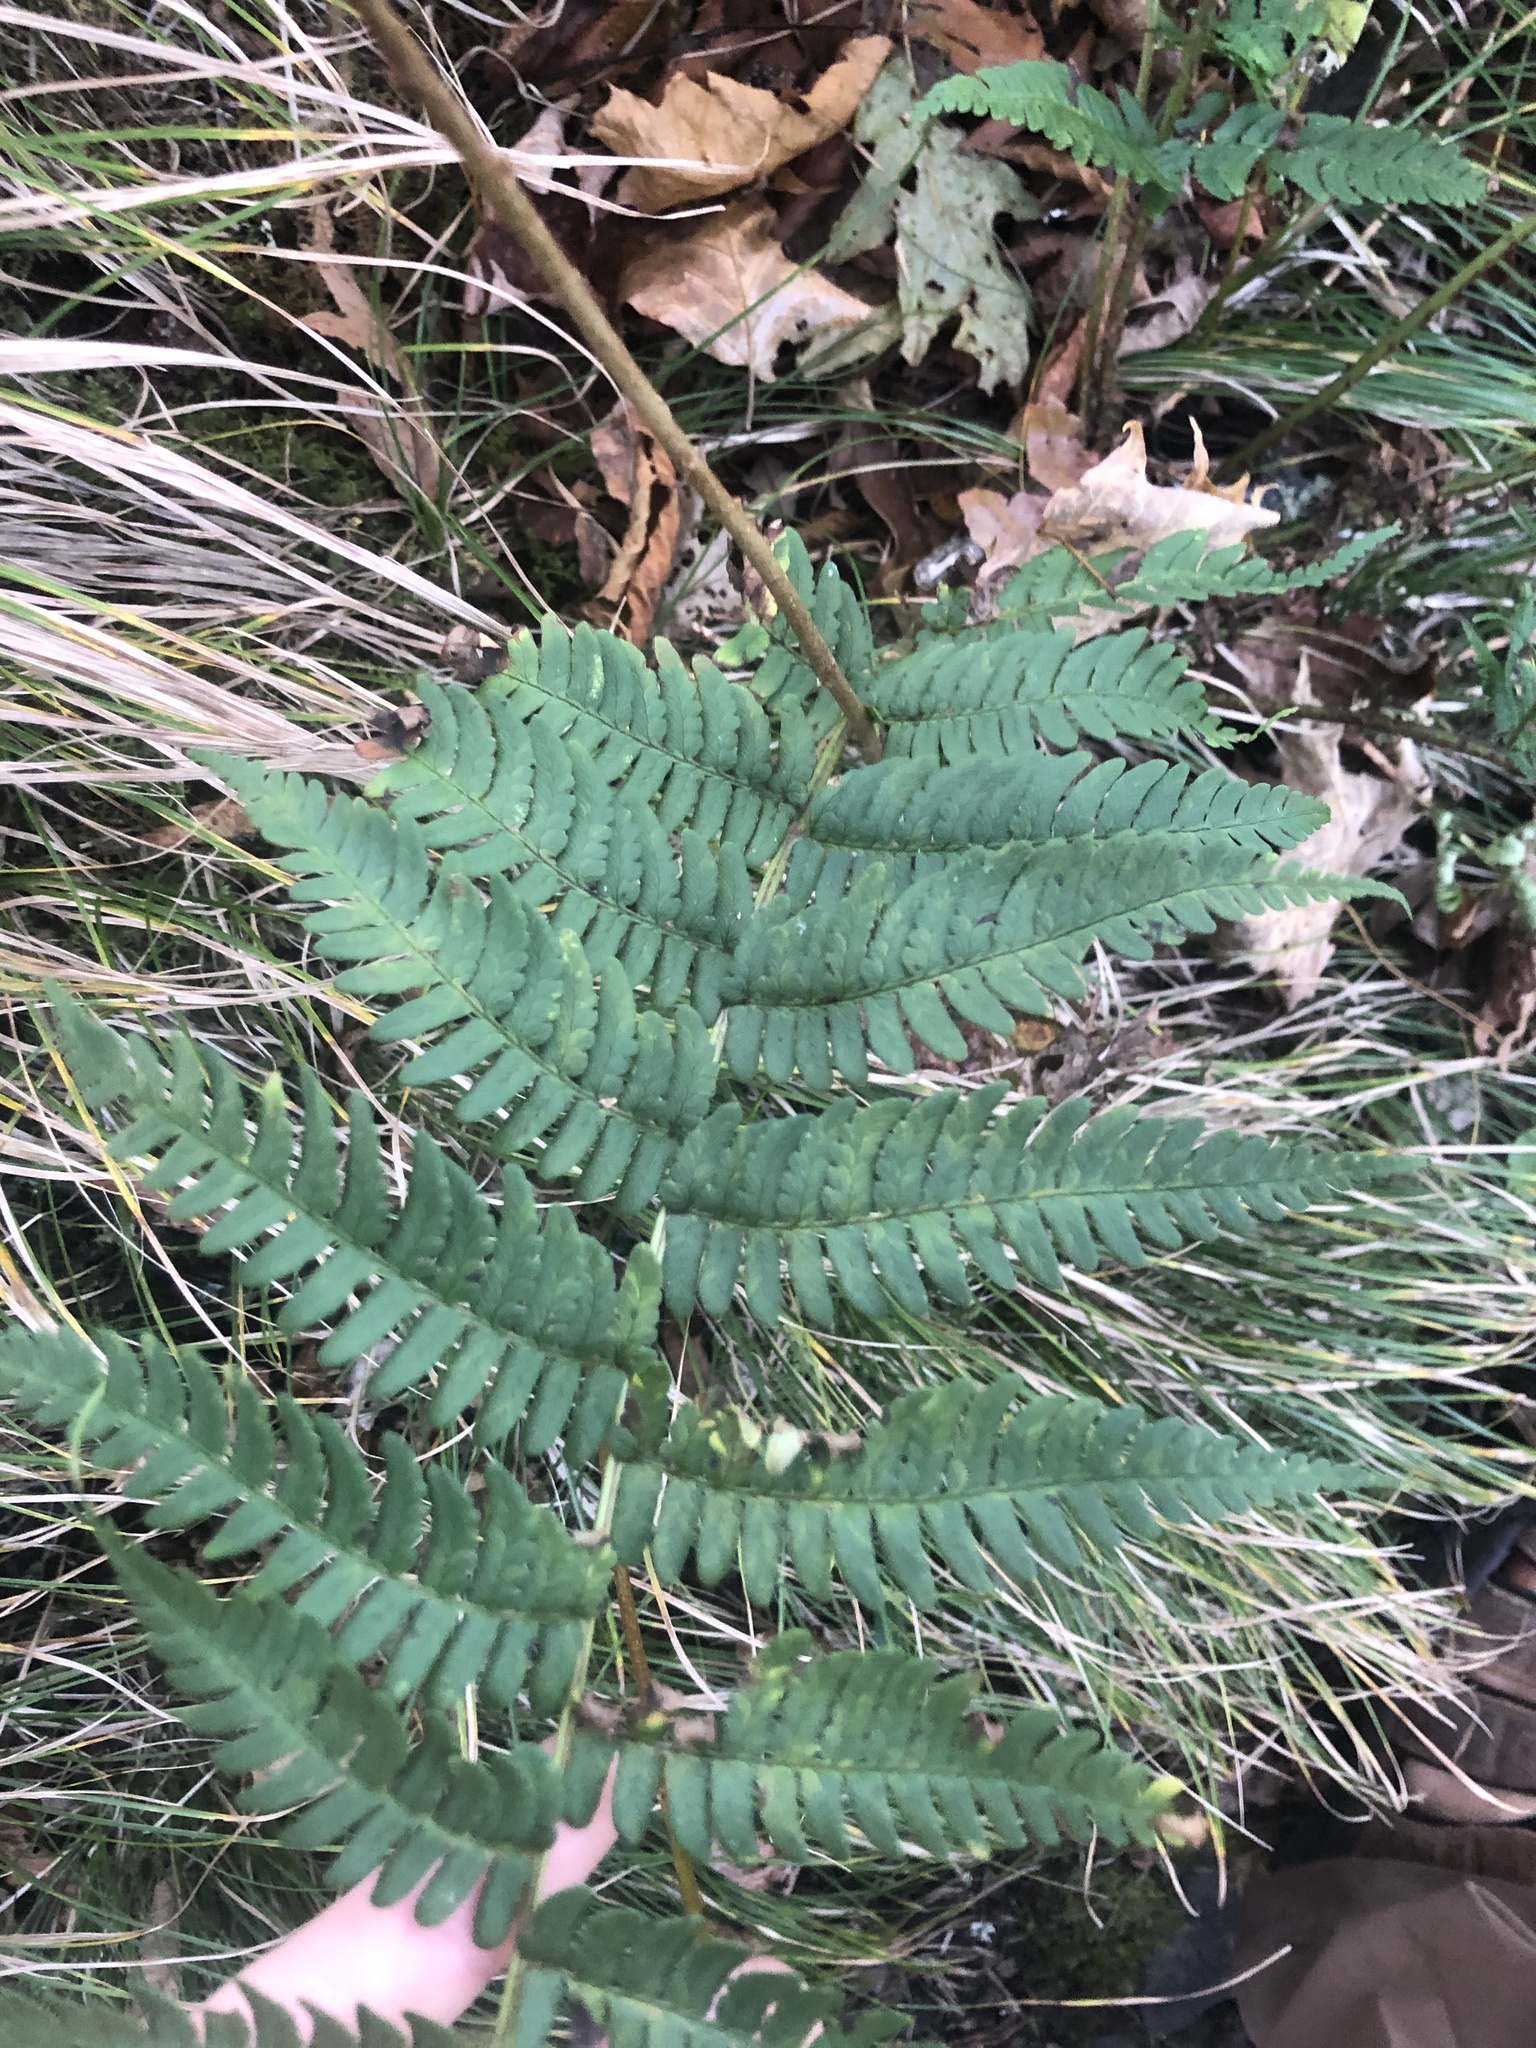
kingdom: Plantae
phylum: Tracheophyta
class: Polypodiopsida
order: Polypodiales
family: Dryopteridaceae
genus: Dryopteris
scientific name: Dryopteris marginalis
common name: Marginal wood fern
